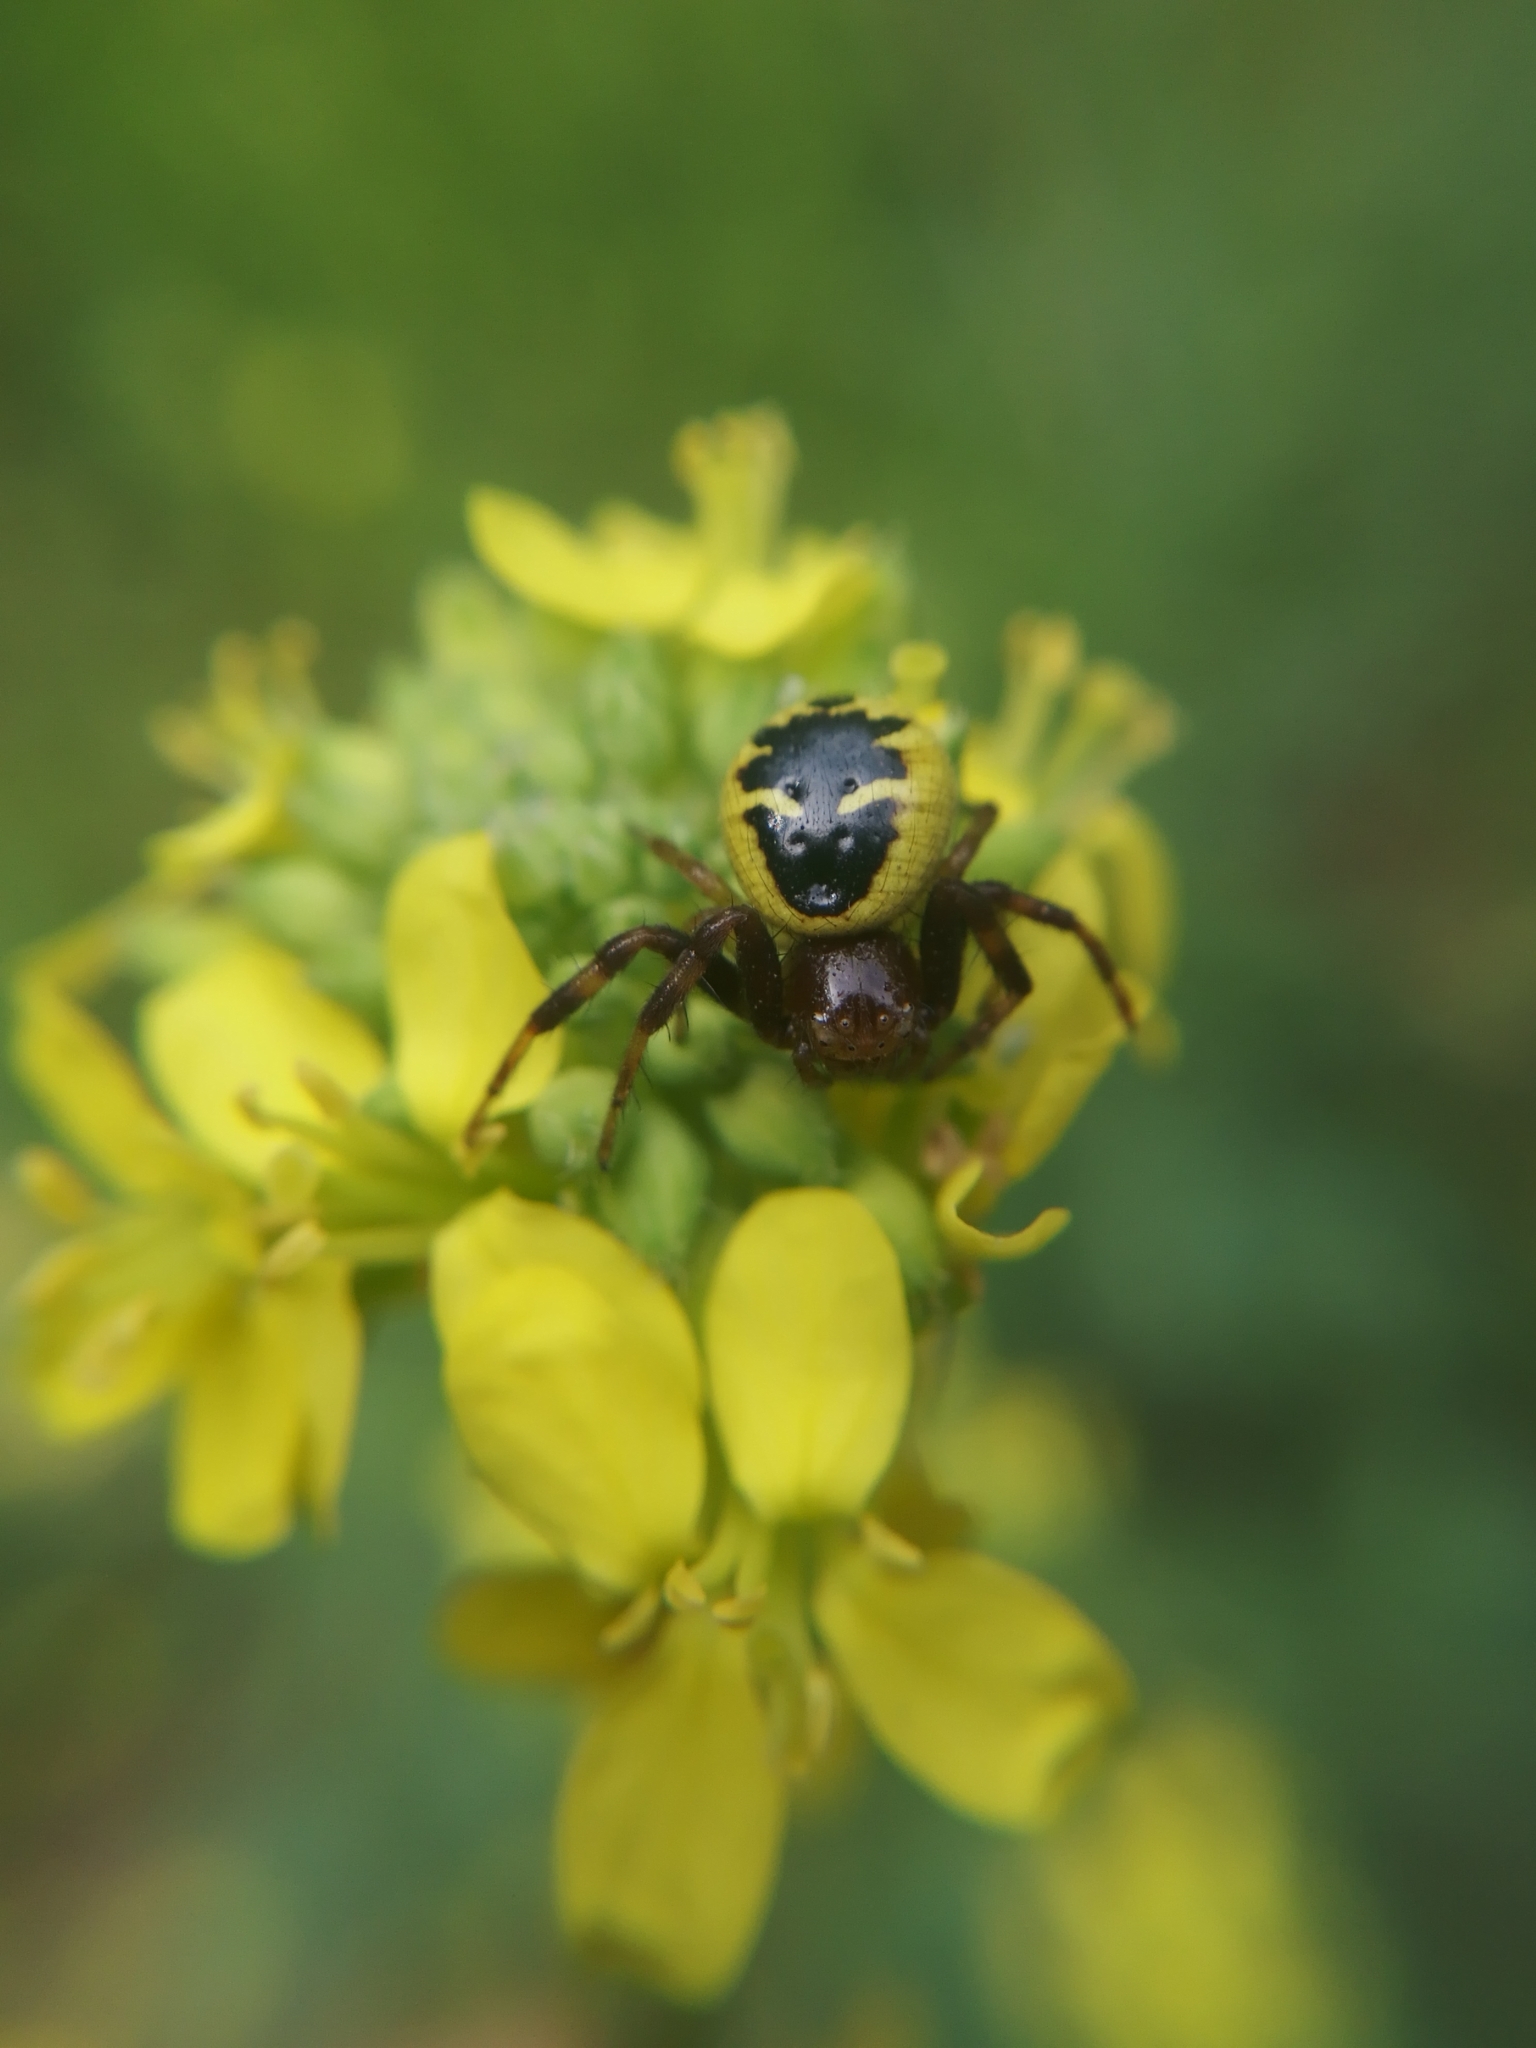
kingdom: Animalia
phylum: Arthropoda
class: Arachnida
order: Araneae
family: Thomisidae
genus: Synema
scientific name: Synema globosum
